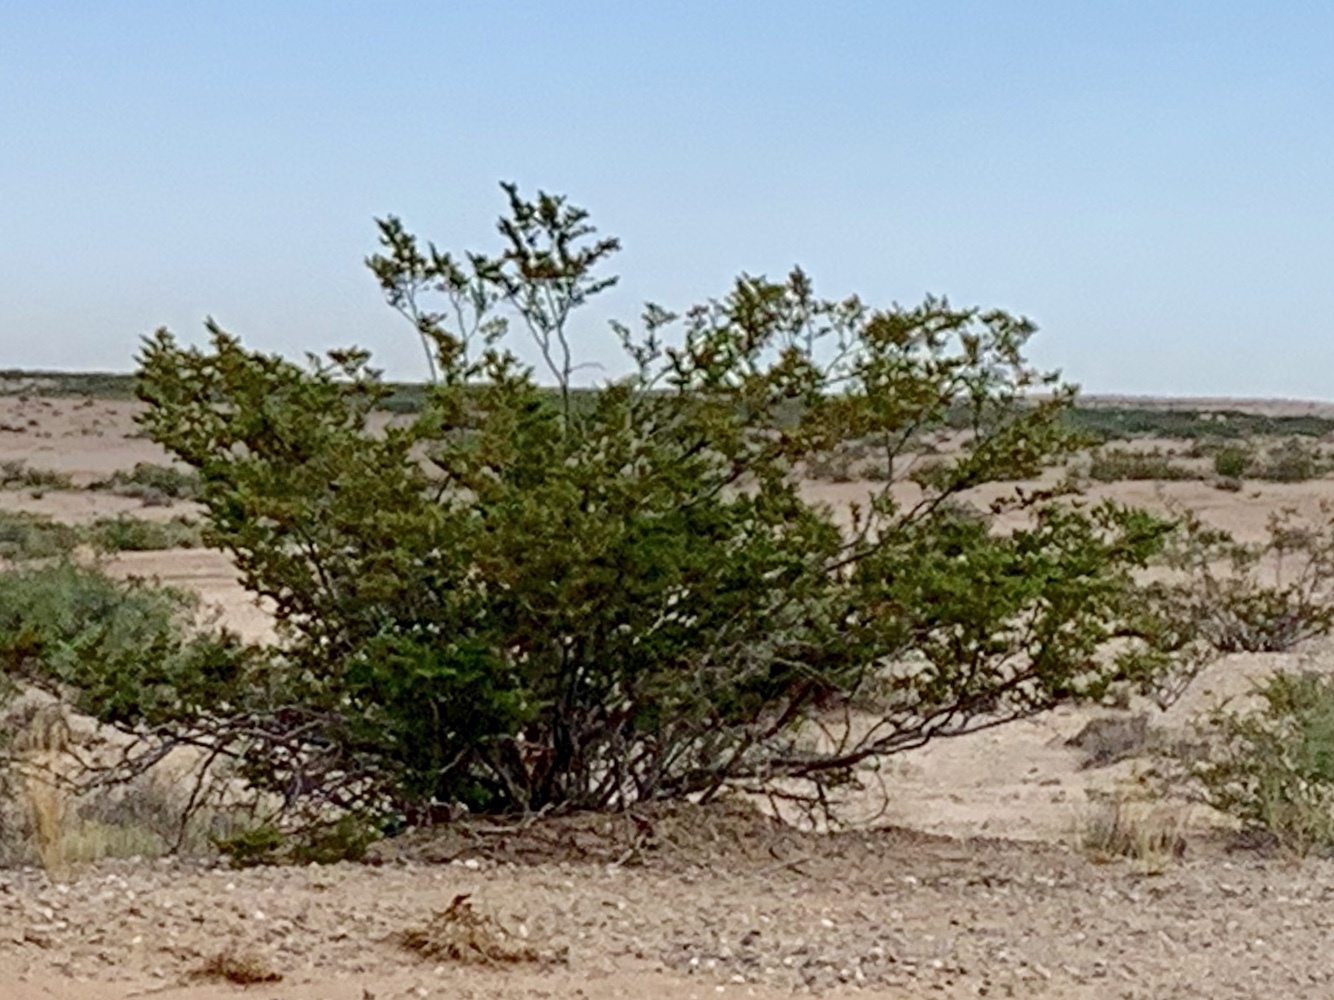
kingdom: Plantae
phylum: Tracheophyta
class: Magnoliopsida
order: Zygophyllales
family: Zygophyllaceae
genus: Larrea
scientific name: Larrea tridentata
